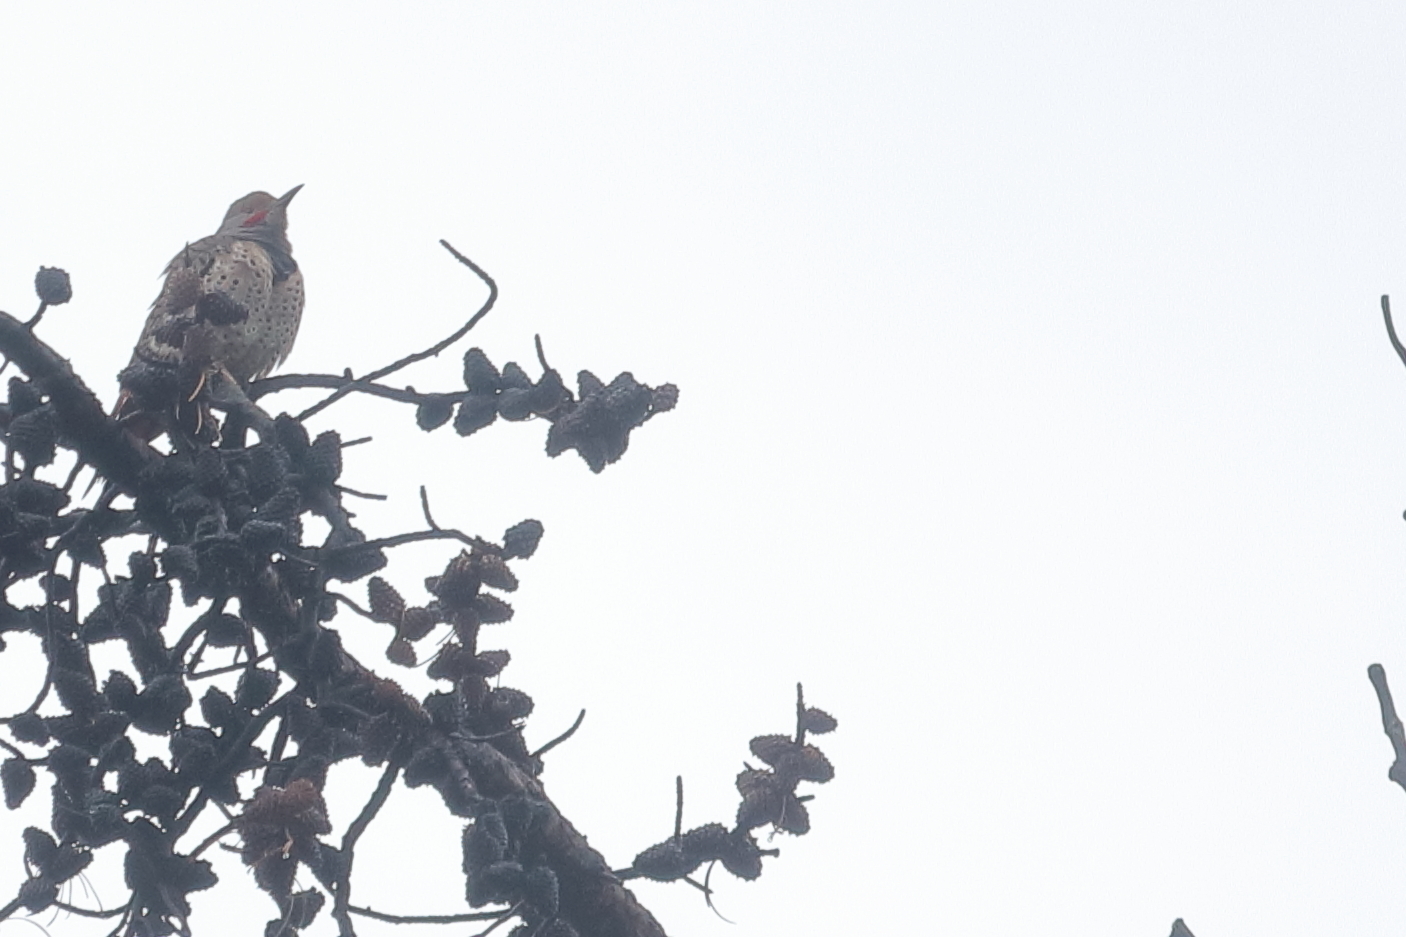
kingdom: Animalia
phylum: Chordata
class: Aves
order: Piciformes
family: Picidae
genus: Colaptes
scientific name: Colaptes auratus
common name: Northern flicker
